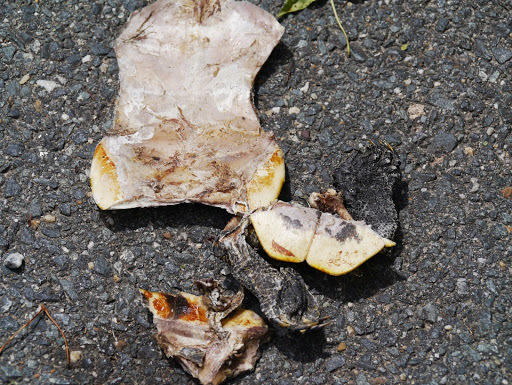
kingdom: Animalia
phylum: Chordata
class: Testudines
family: Emydidae
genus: Trachemys
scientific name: Trachemys scripta
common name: Slider
